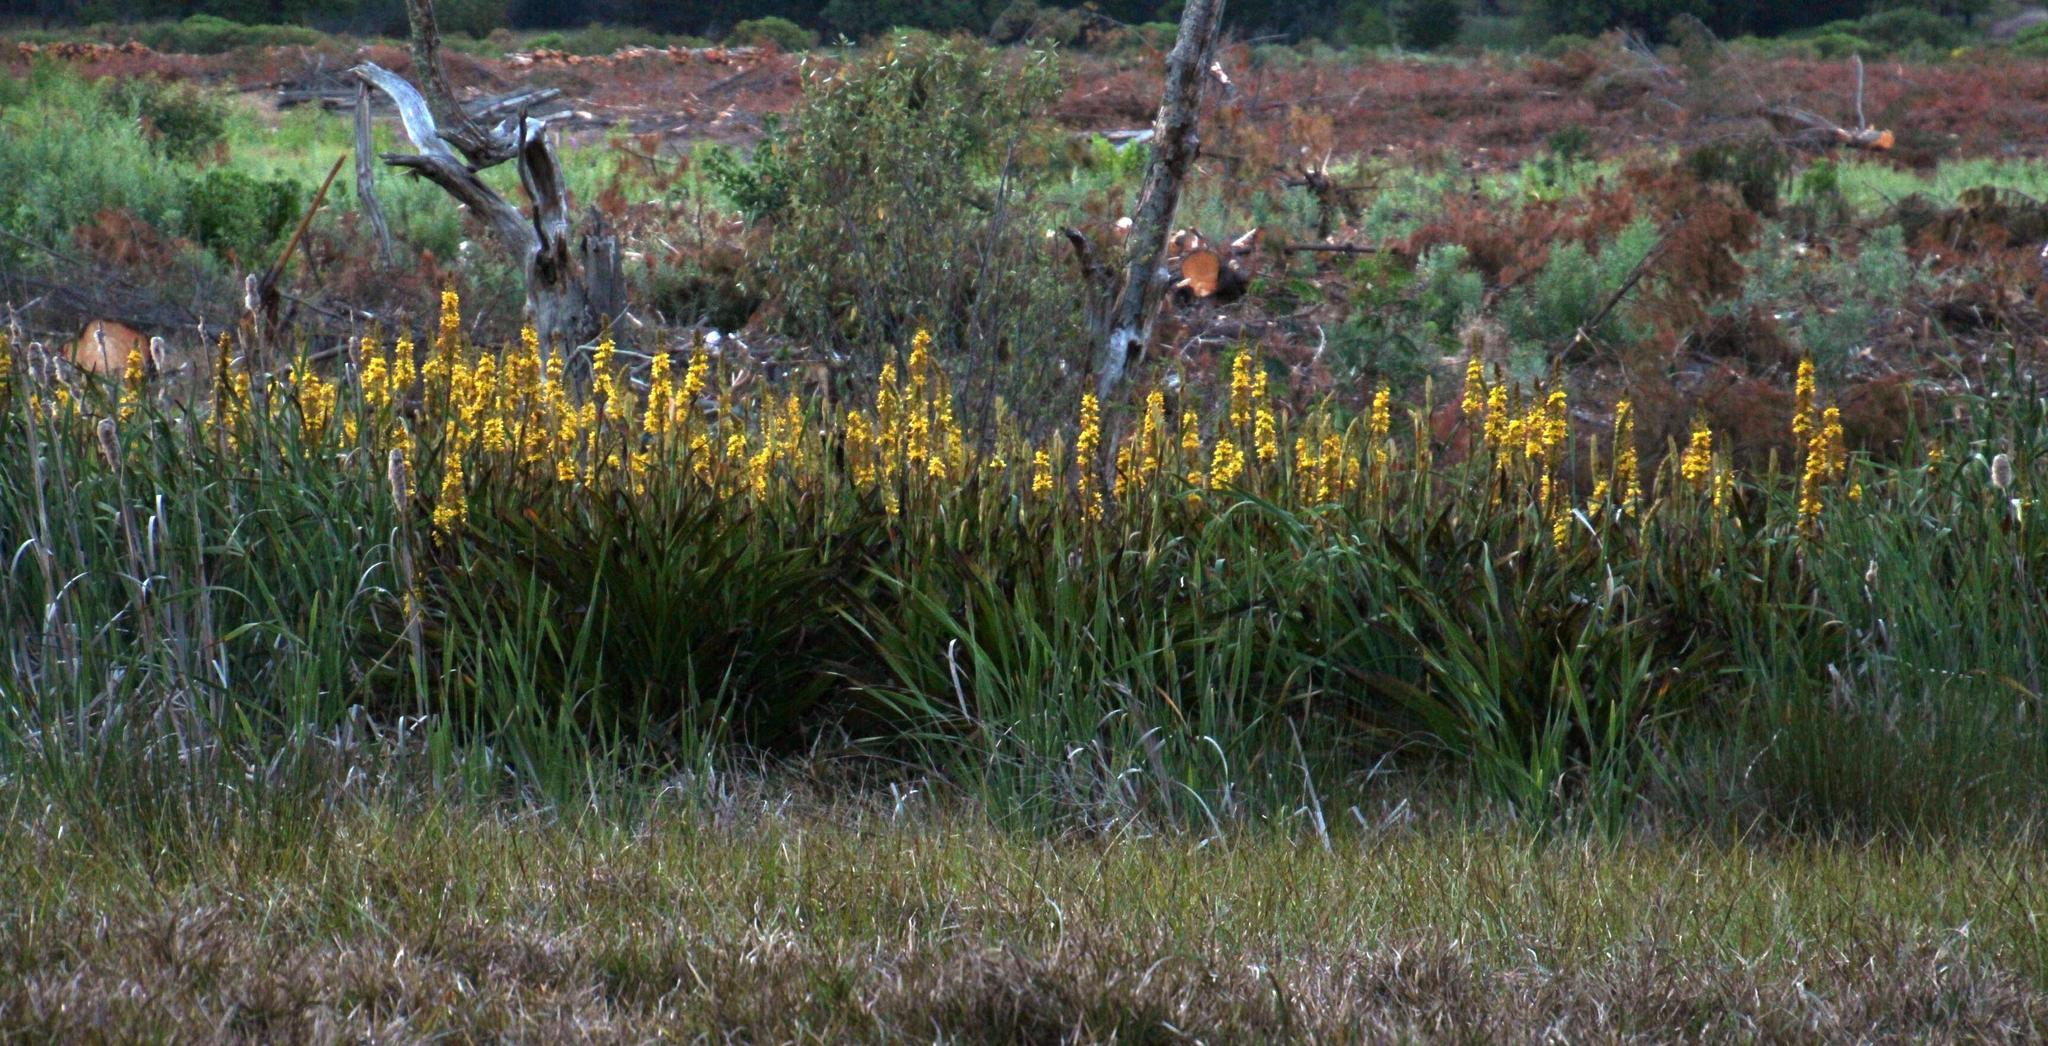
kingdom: Plantae
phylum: Tracheophyta
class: Liliopsida
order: Commelinales
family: Haemodoraceae
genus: Wachendorfia
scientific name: Wachendorfia thyrsiflora
